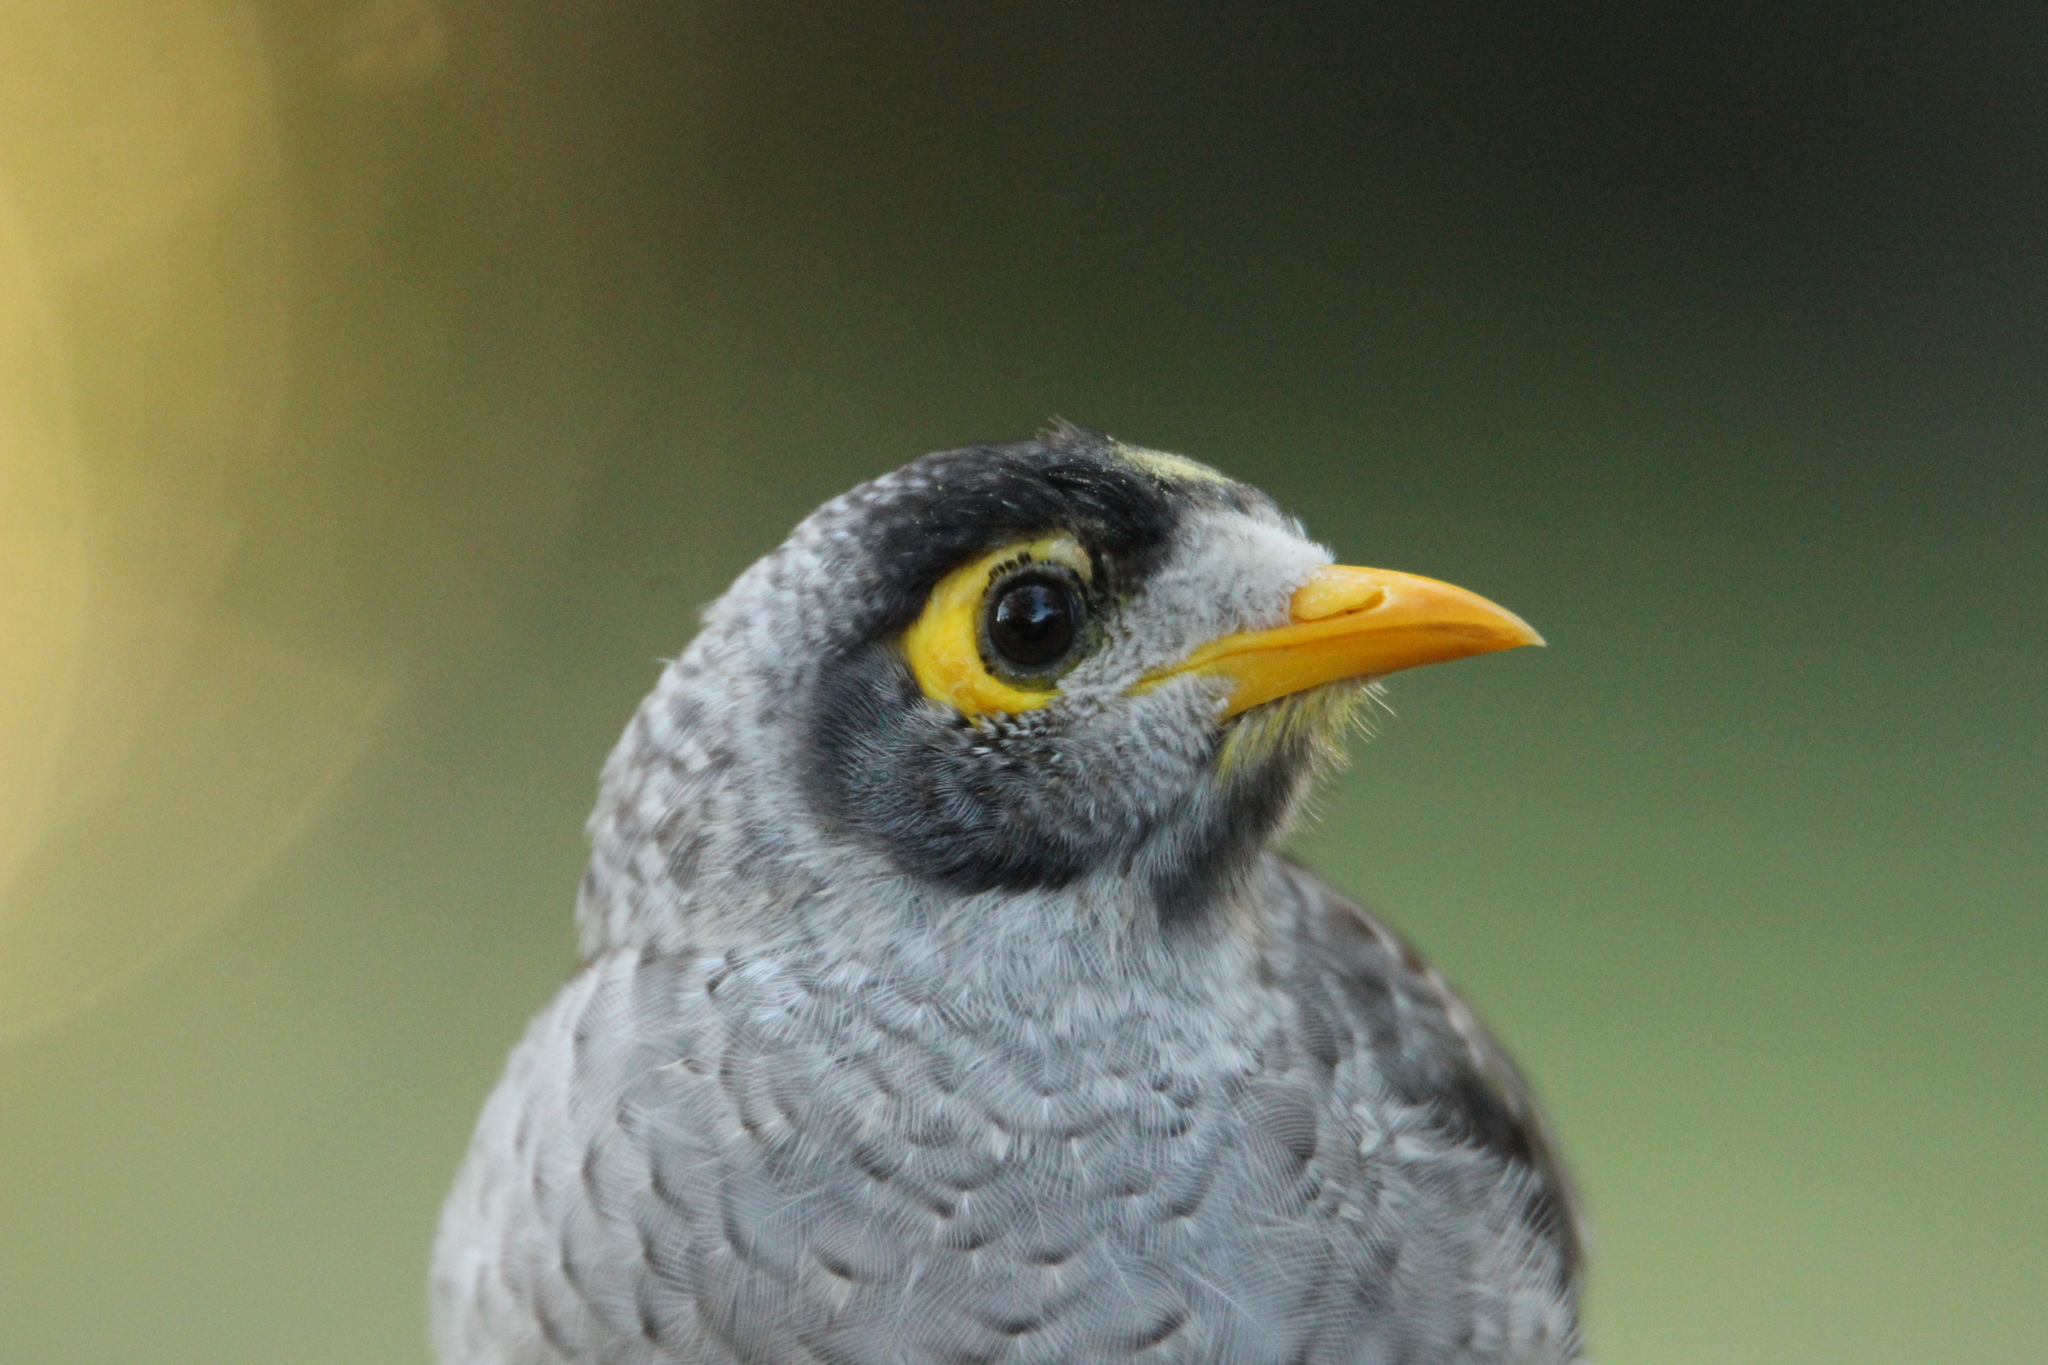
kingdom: Animalia
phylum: Chordata
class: Aves
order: Passeriformes
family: Meliphagidae
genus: Manorina
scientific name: Manorina melanocephala
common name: Noisy miner
